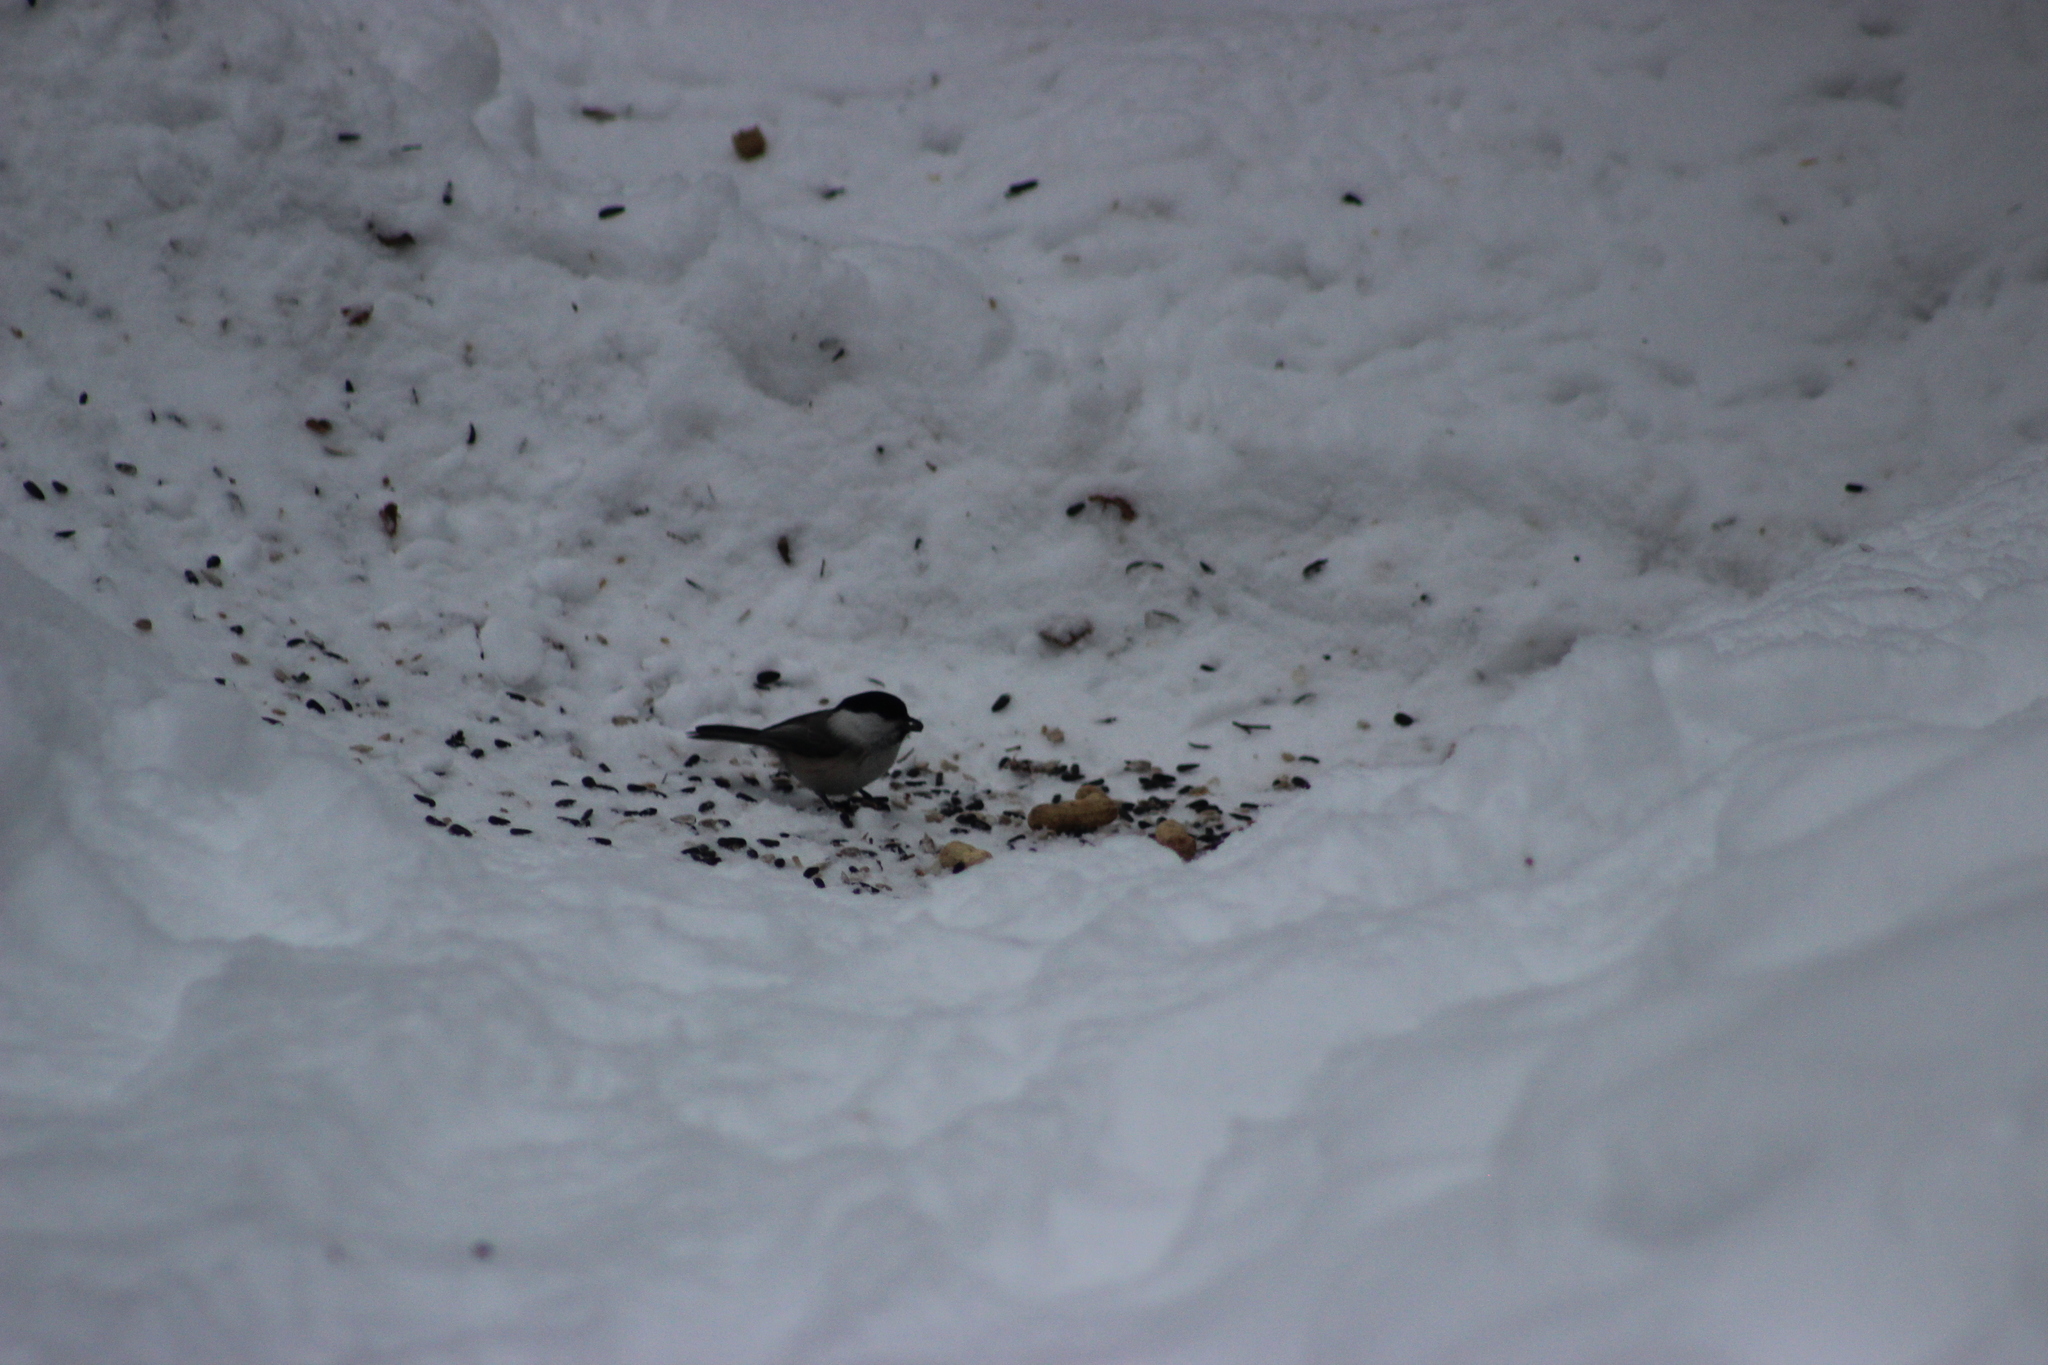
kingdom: Animalia
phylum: Chordata
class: Aves
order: Passeriformes
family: Paridae
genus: Poecile
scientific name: Poecile montanus
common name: Willow tit
